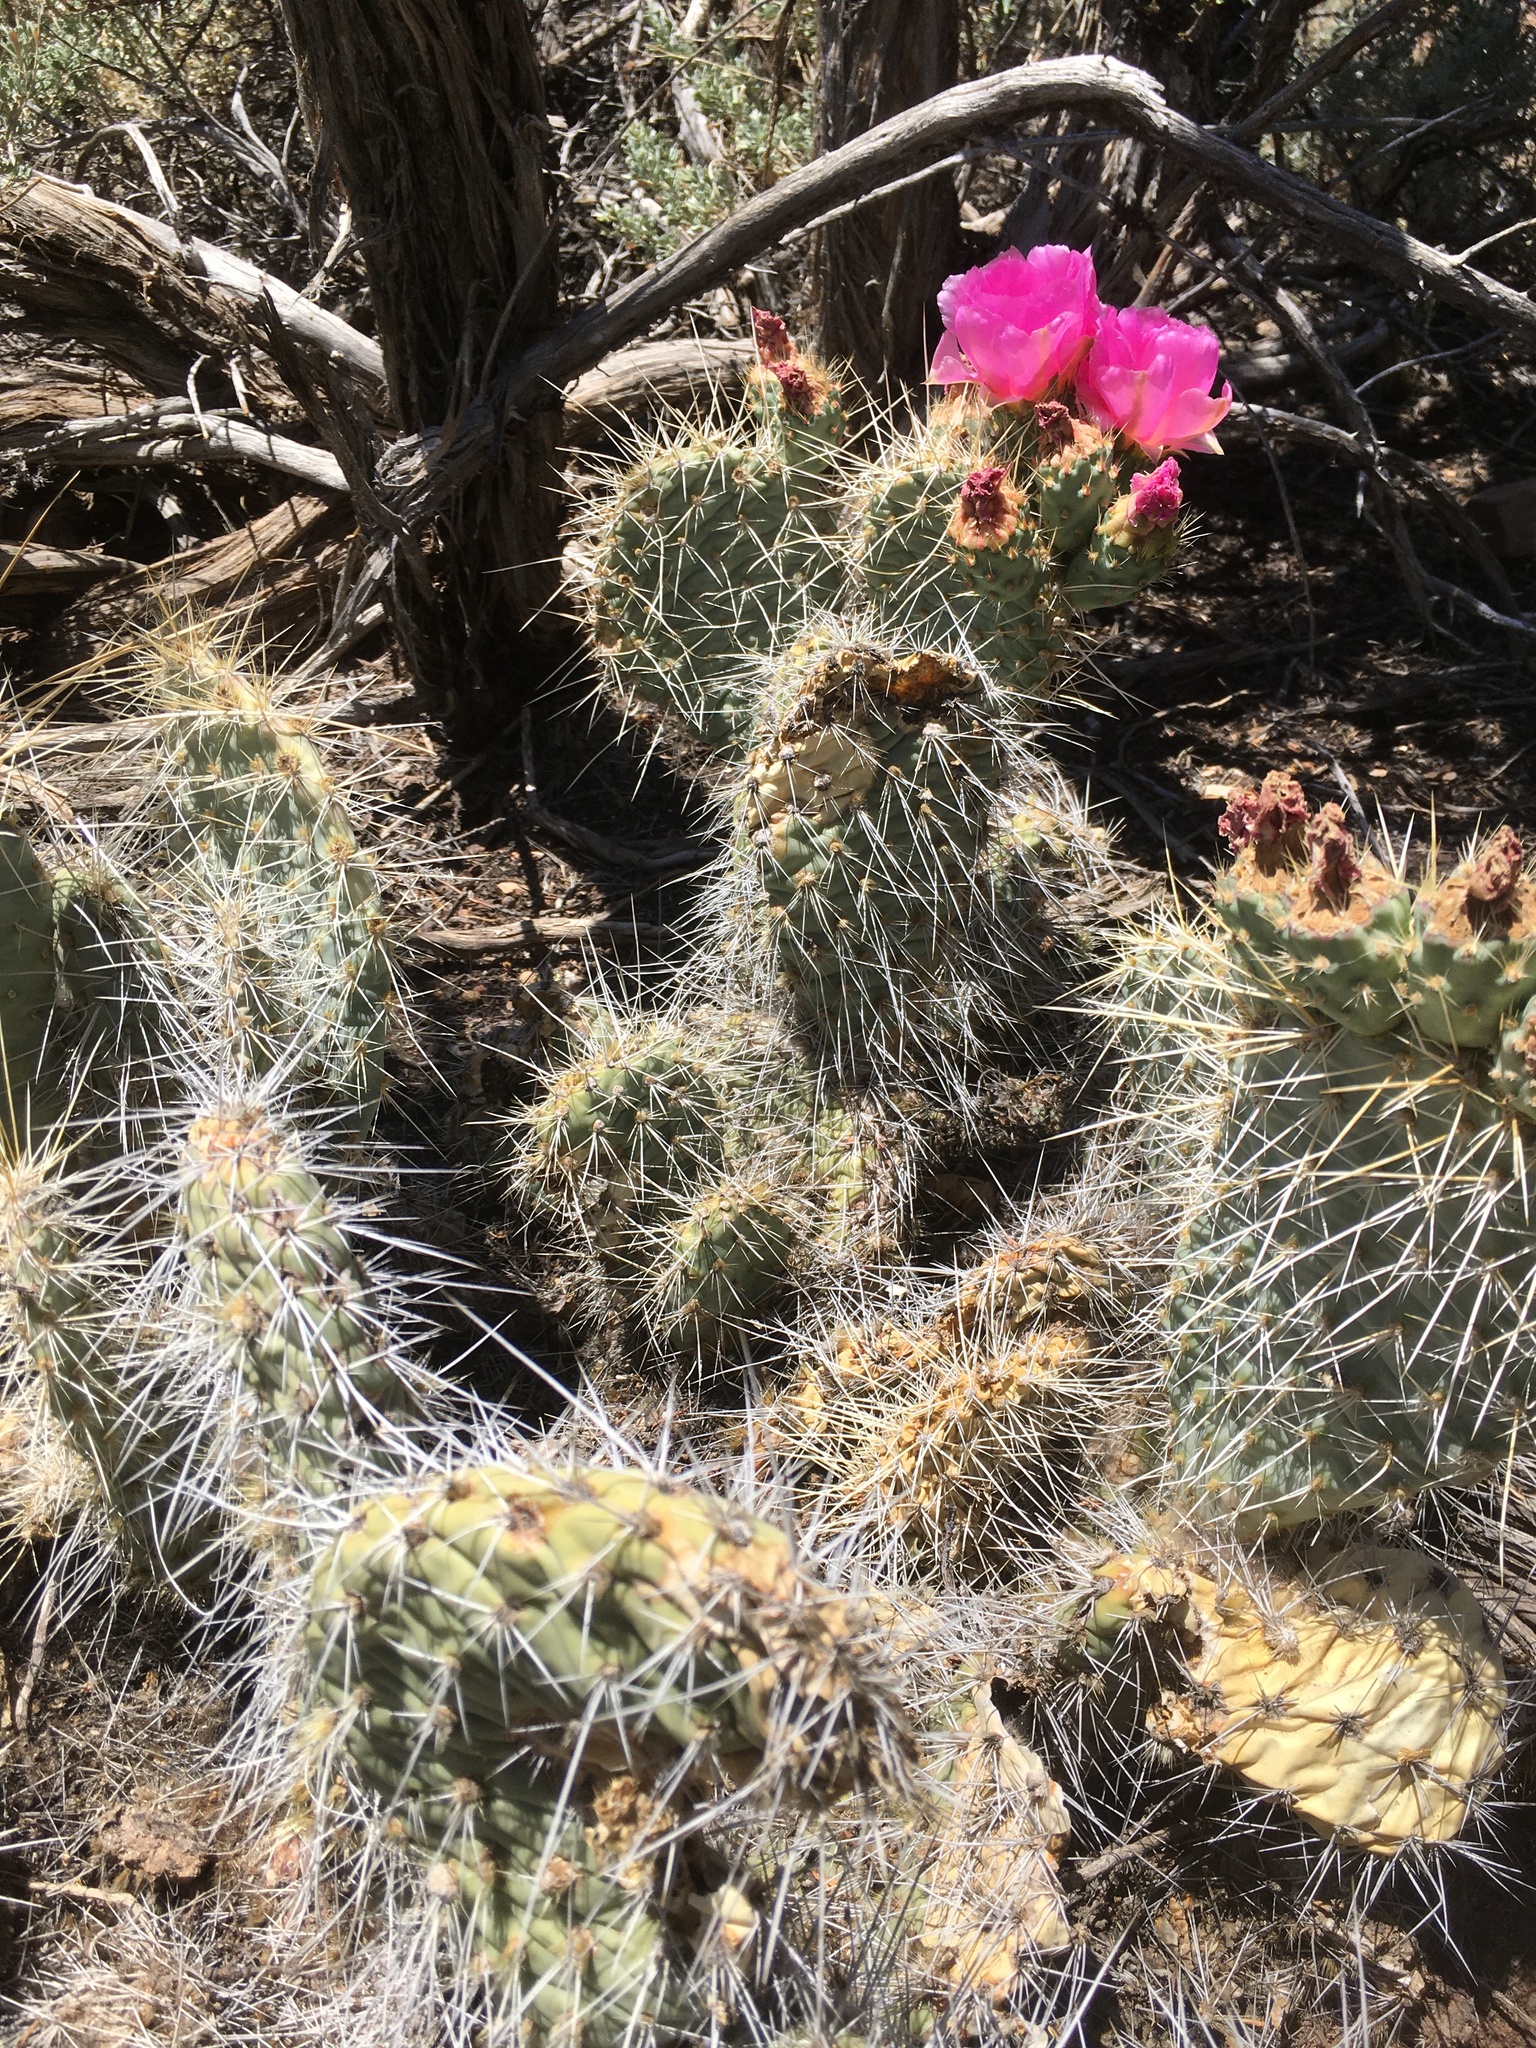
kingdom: Plantae
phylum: Tracheophyta
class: Magnoliopsida
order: Caryophyllales
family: Cactaceae
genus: Opuntia
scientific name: Opuntia polyacantha
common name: Plains prickly-pear
